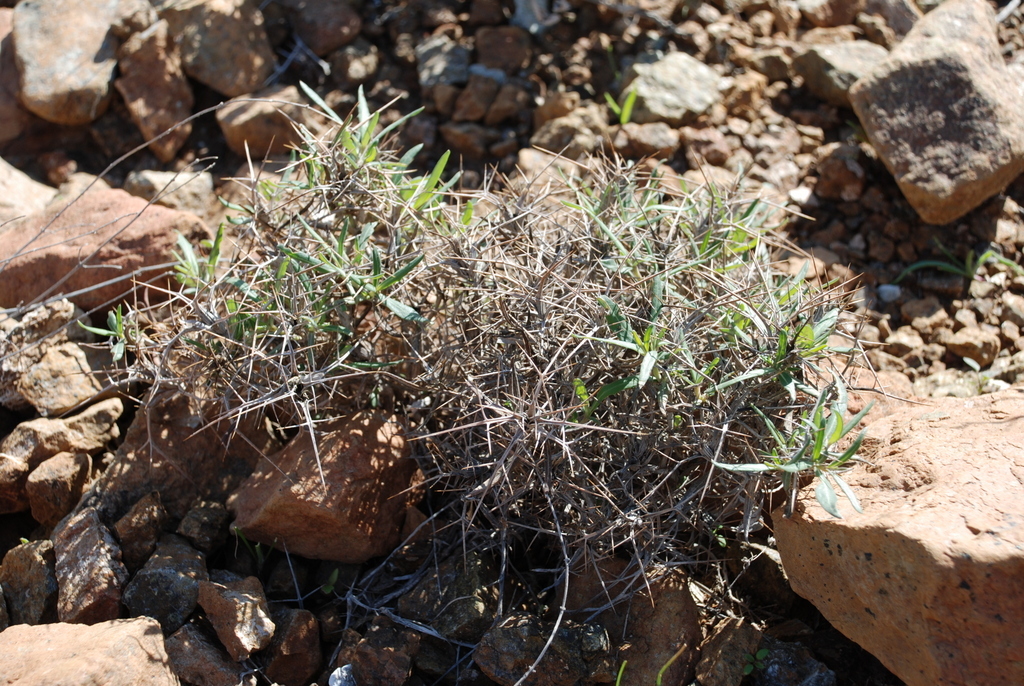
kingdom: Plantae
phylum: Tracheophyta
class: Magnoliopsida
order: Lamiales
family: Acanthaceae
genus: Blepharis
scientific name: Blepharis ciliaris
